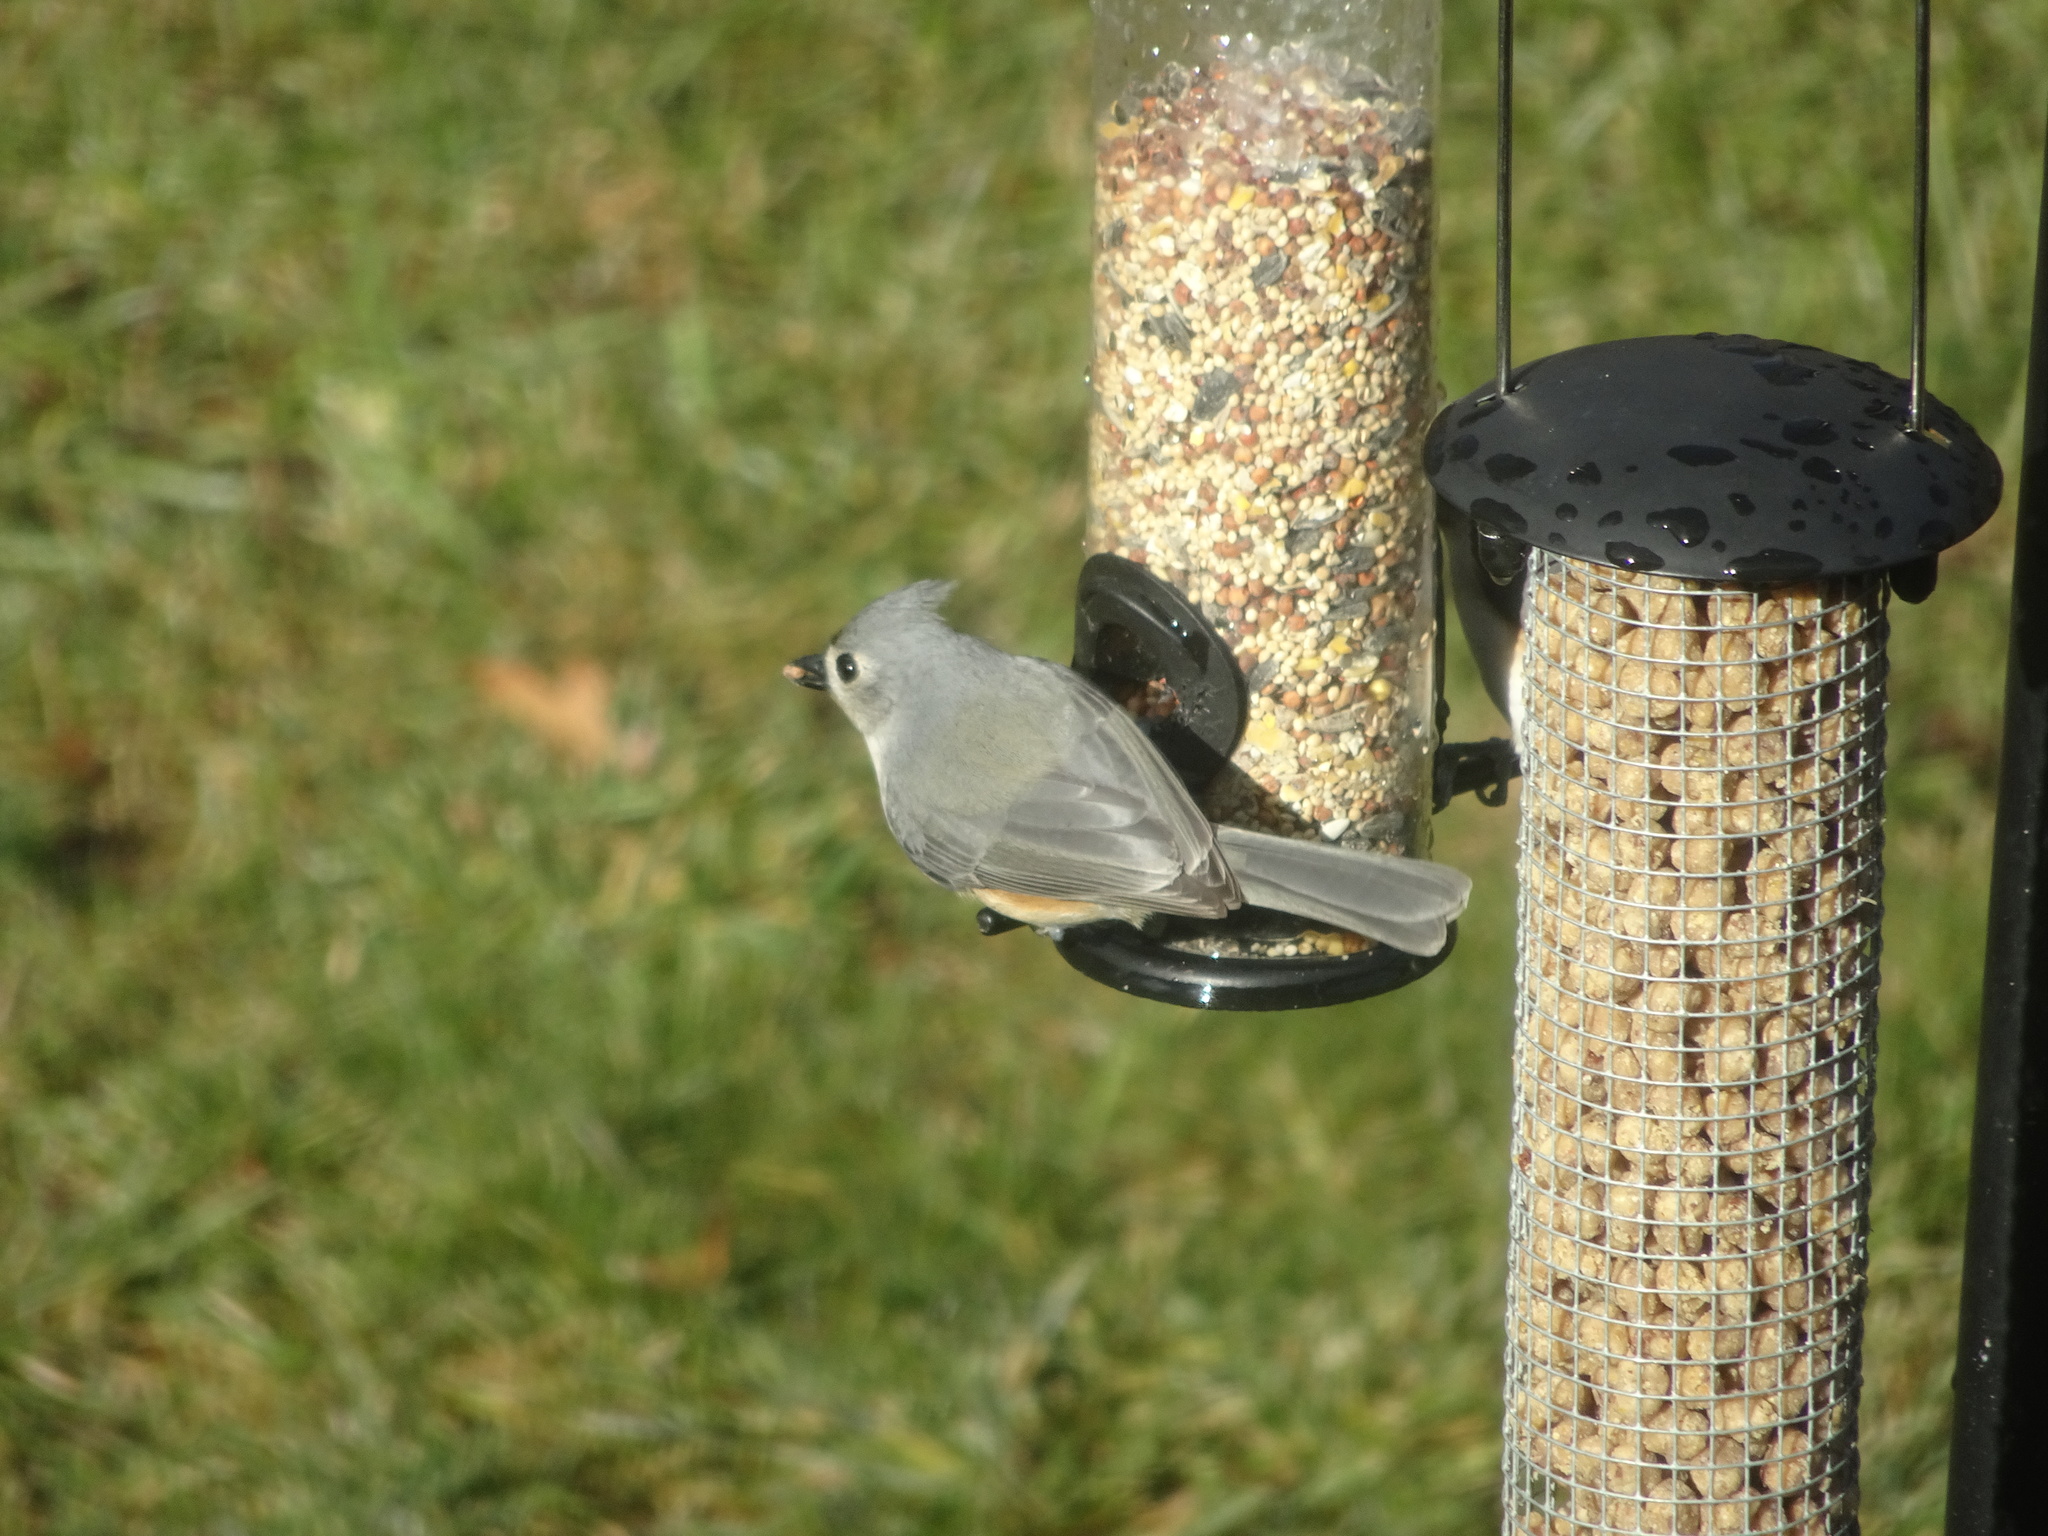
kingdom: Animalia
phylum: Chordata
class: Aves
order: Passeriformes
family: Paridae
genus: Baeolophus
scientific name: Baeolophus bicolor
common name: Tufted titmouse
